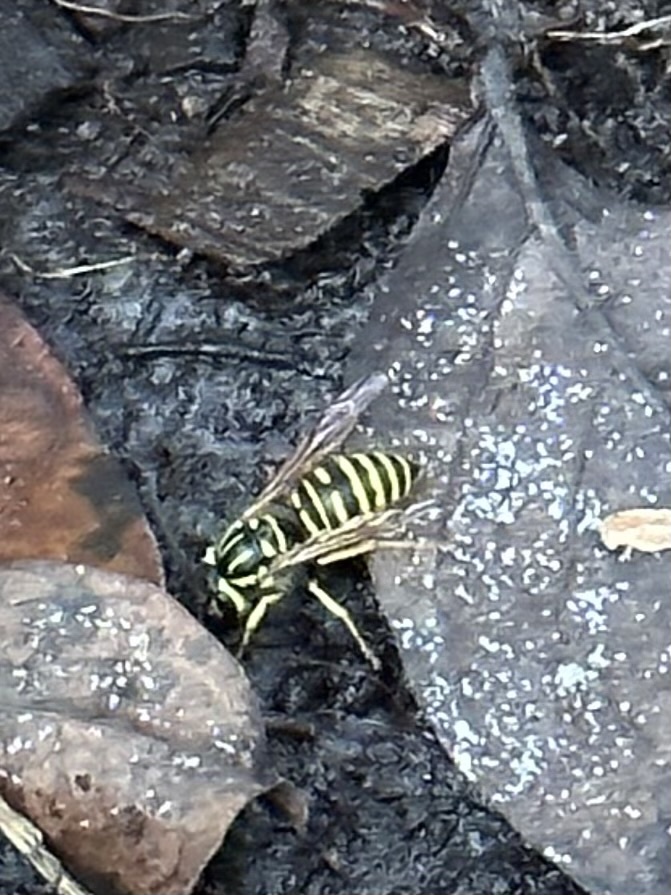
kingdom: Animalia
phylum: Arthropoda
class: Insecta
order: Hymenoptera
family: Vespidae
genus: Vespula
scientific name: Vespula squamosa
